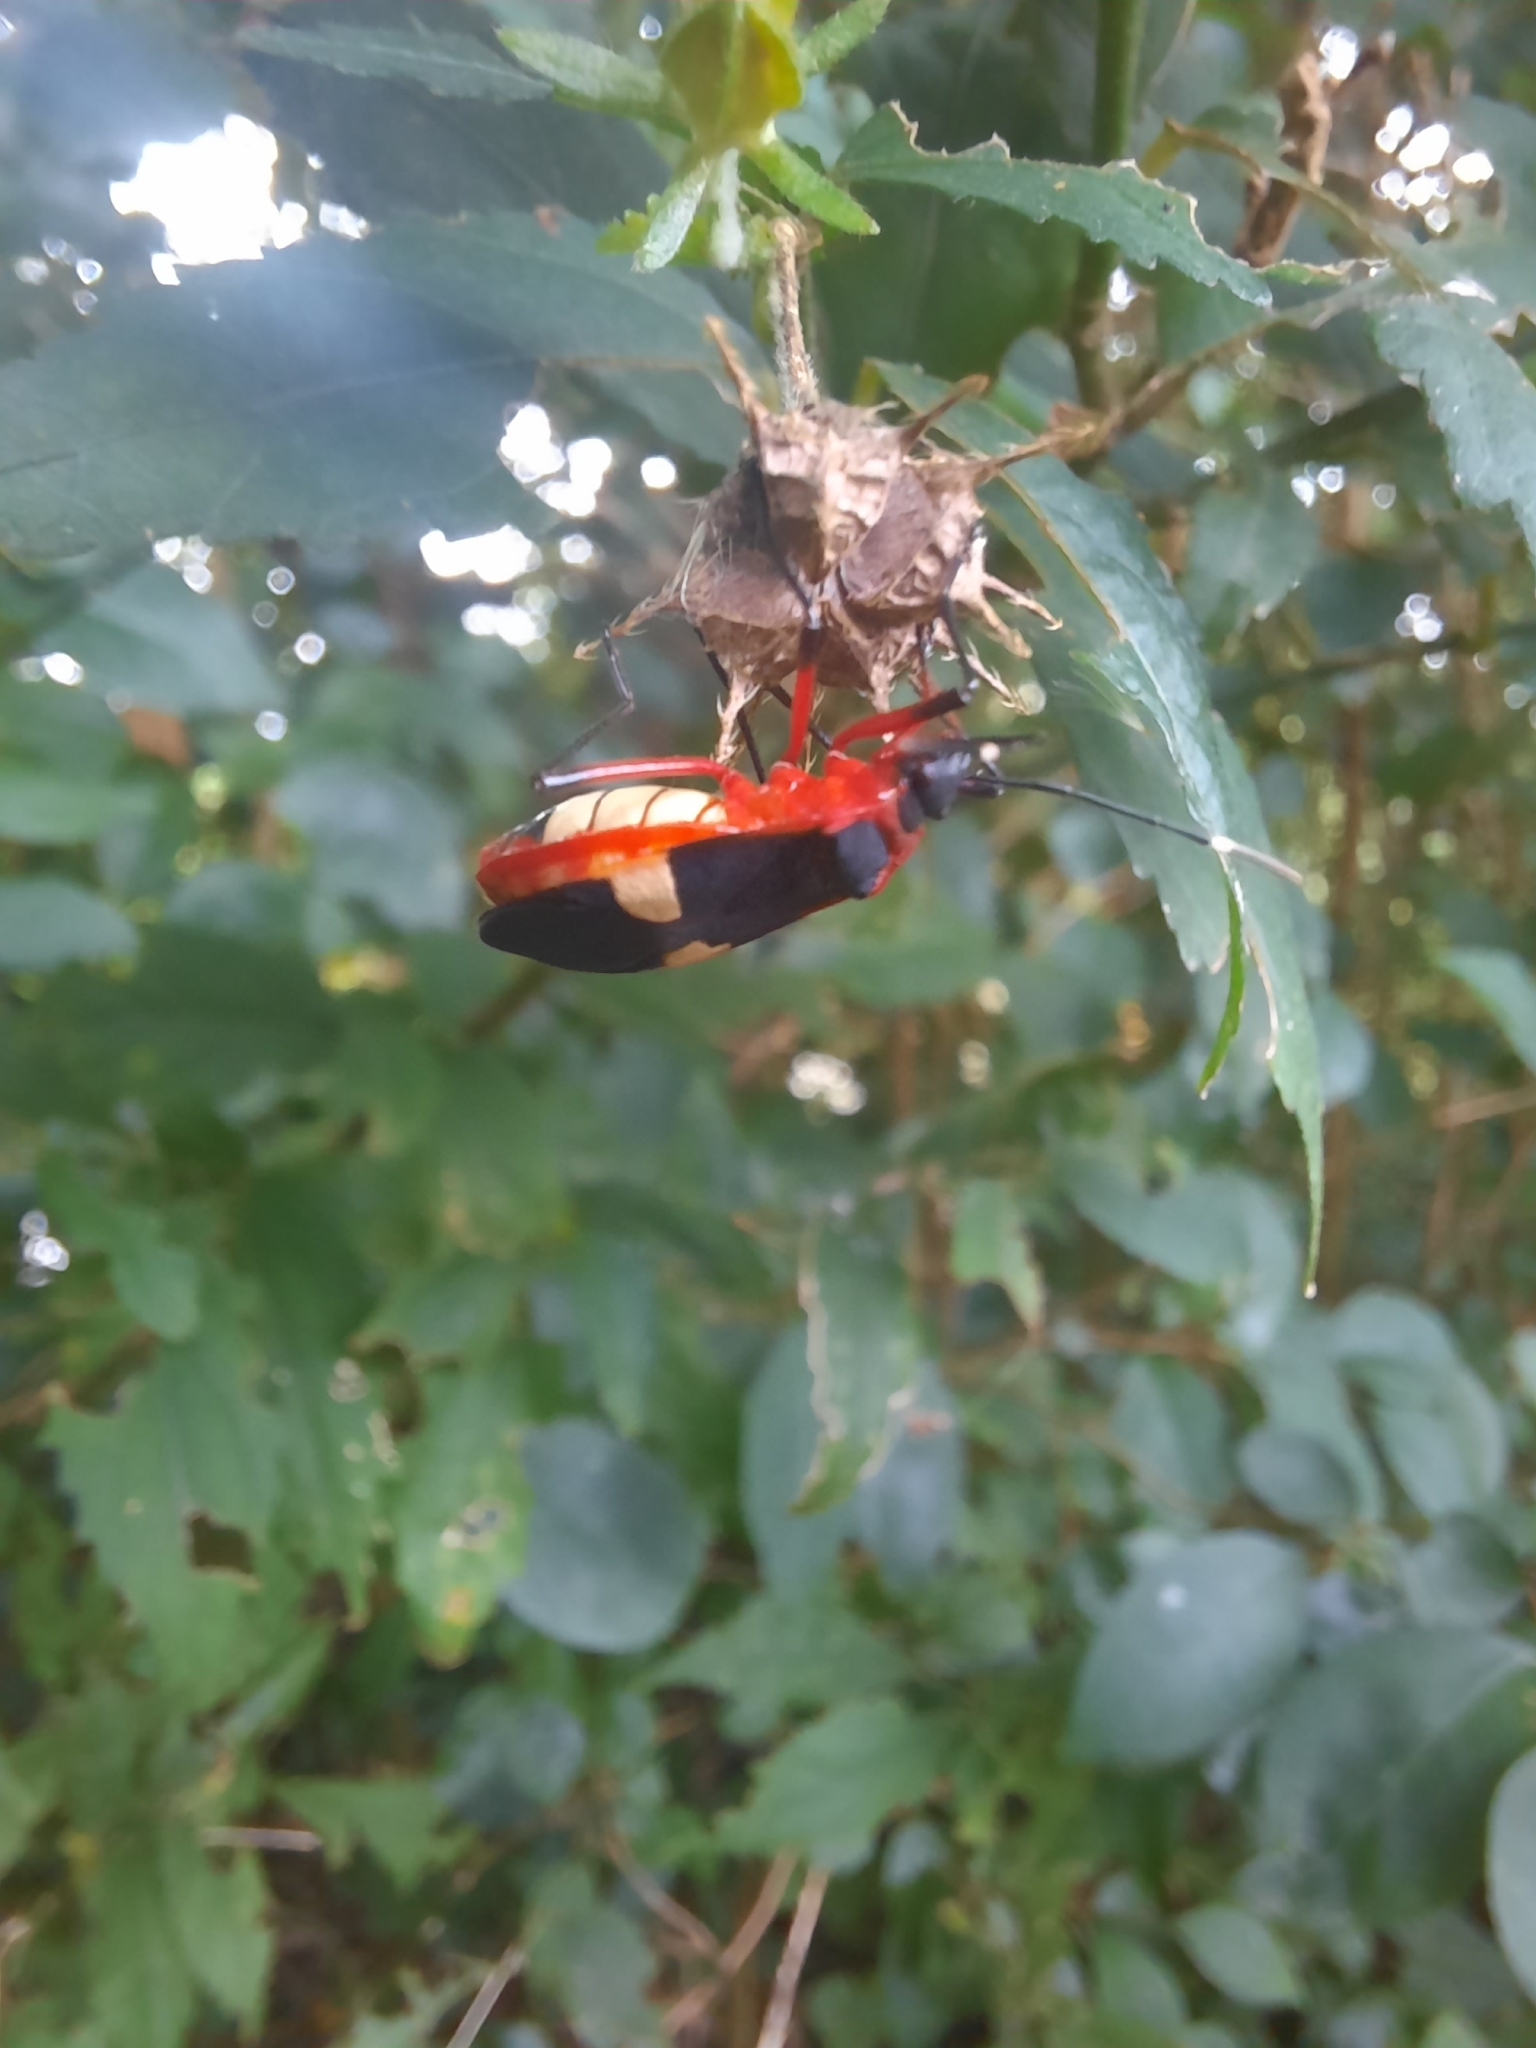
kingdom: Animalia
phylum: Arthropoda
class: Insecta
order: Hemiptera
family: Pyrrhocoridae
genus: Dysdercus
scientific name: Dysdercus albofasciatus
